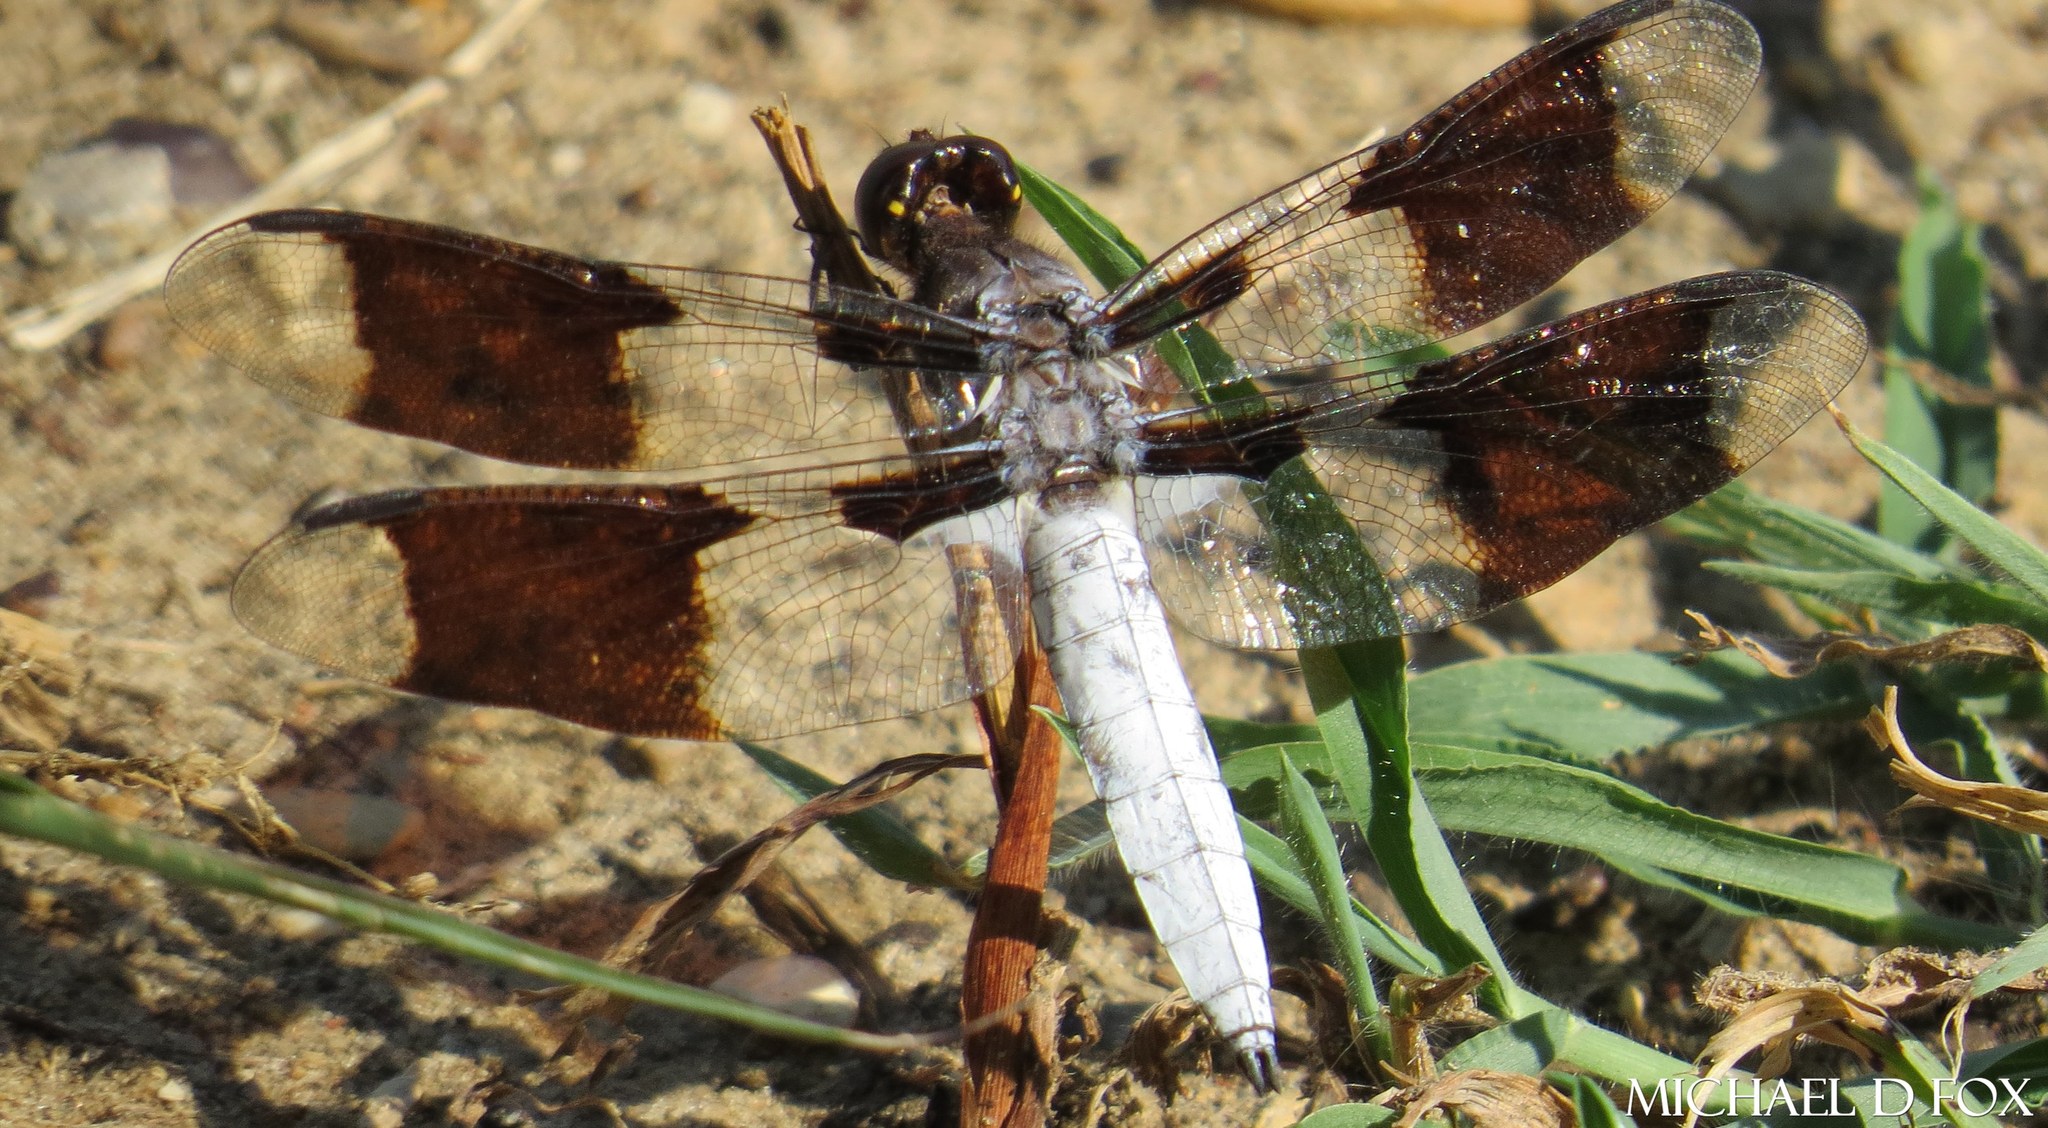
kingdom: Animalia
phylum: Arthropoda
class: Insecta
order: Odonata
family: Libellulidae
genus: Plathemis
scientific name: Plathemis lydia
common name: Common whitetail
